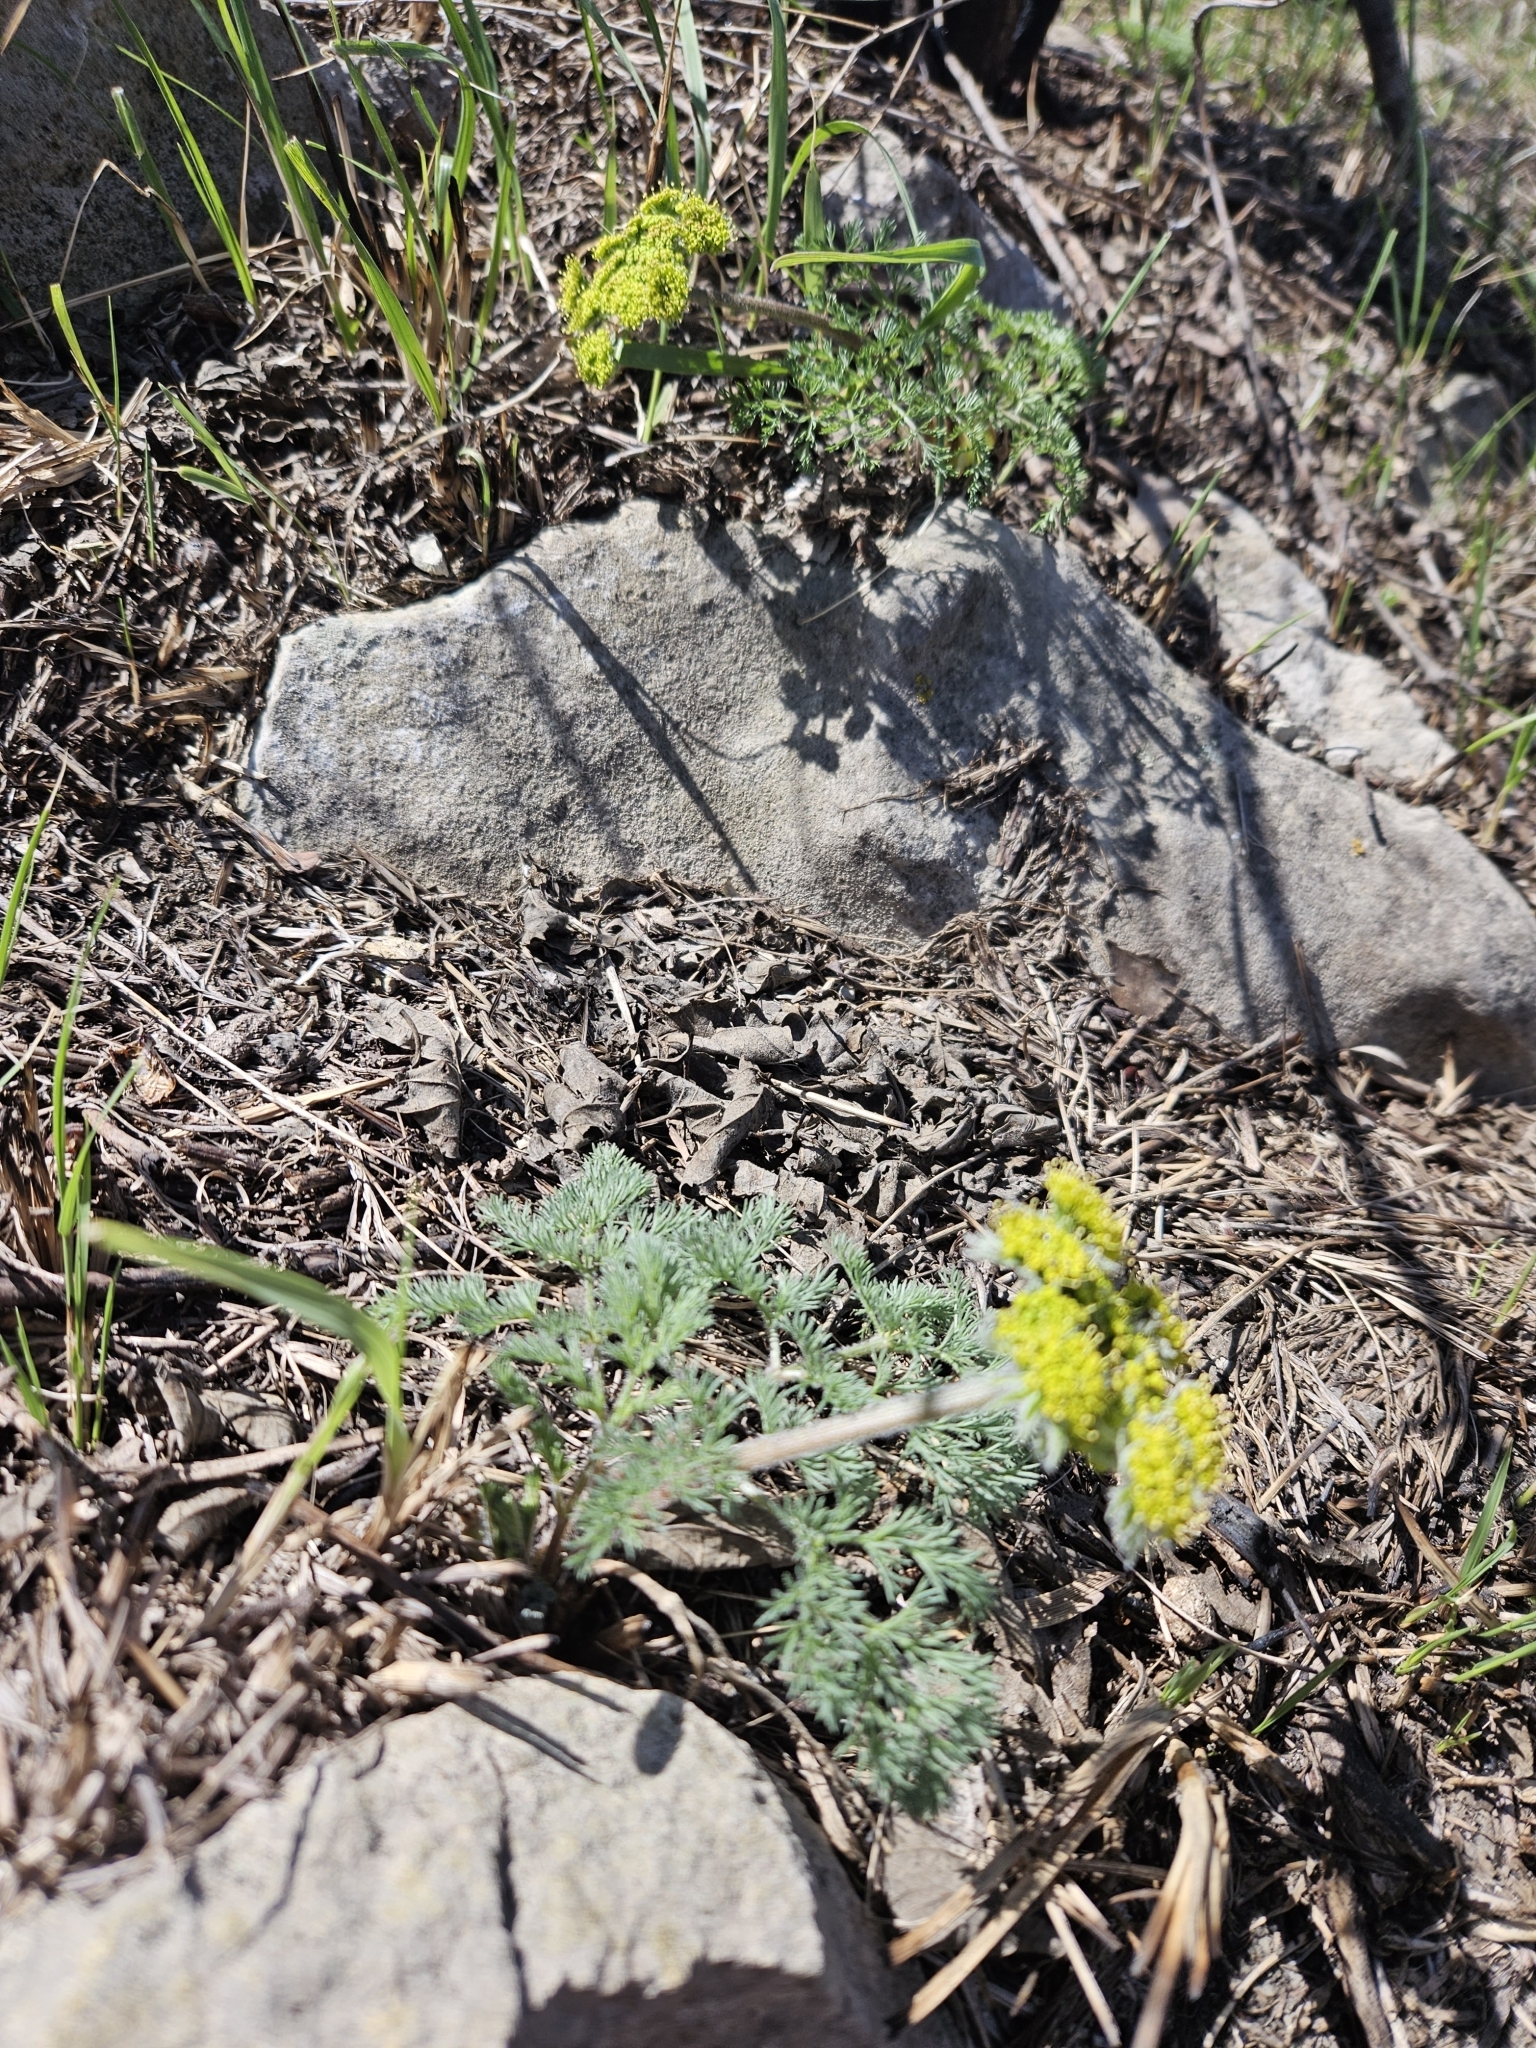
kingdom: Plantae
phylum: Tracheophyta
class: Magnoliopsida
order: Apiales
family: Apiaceae
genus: Lomatium
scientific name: Lomatium foeniculaceum
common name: Desert-parsley
